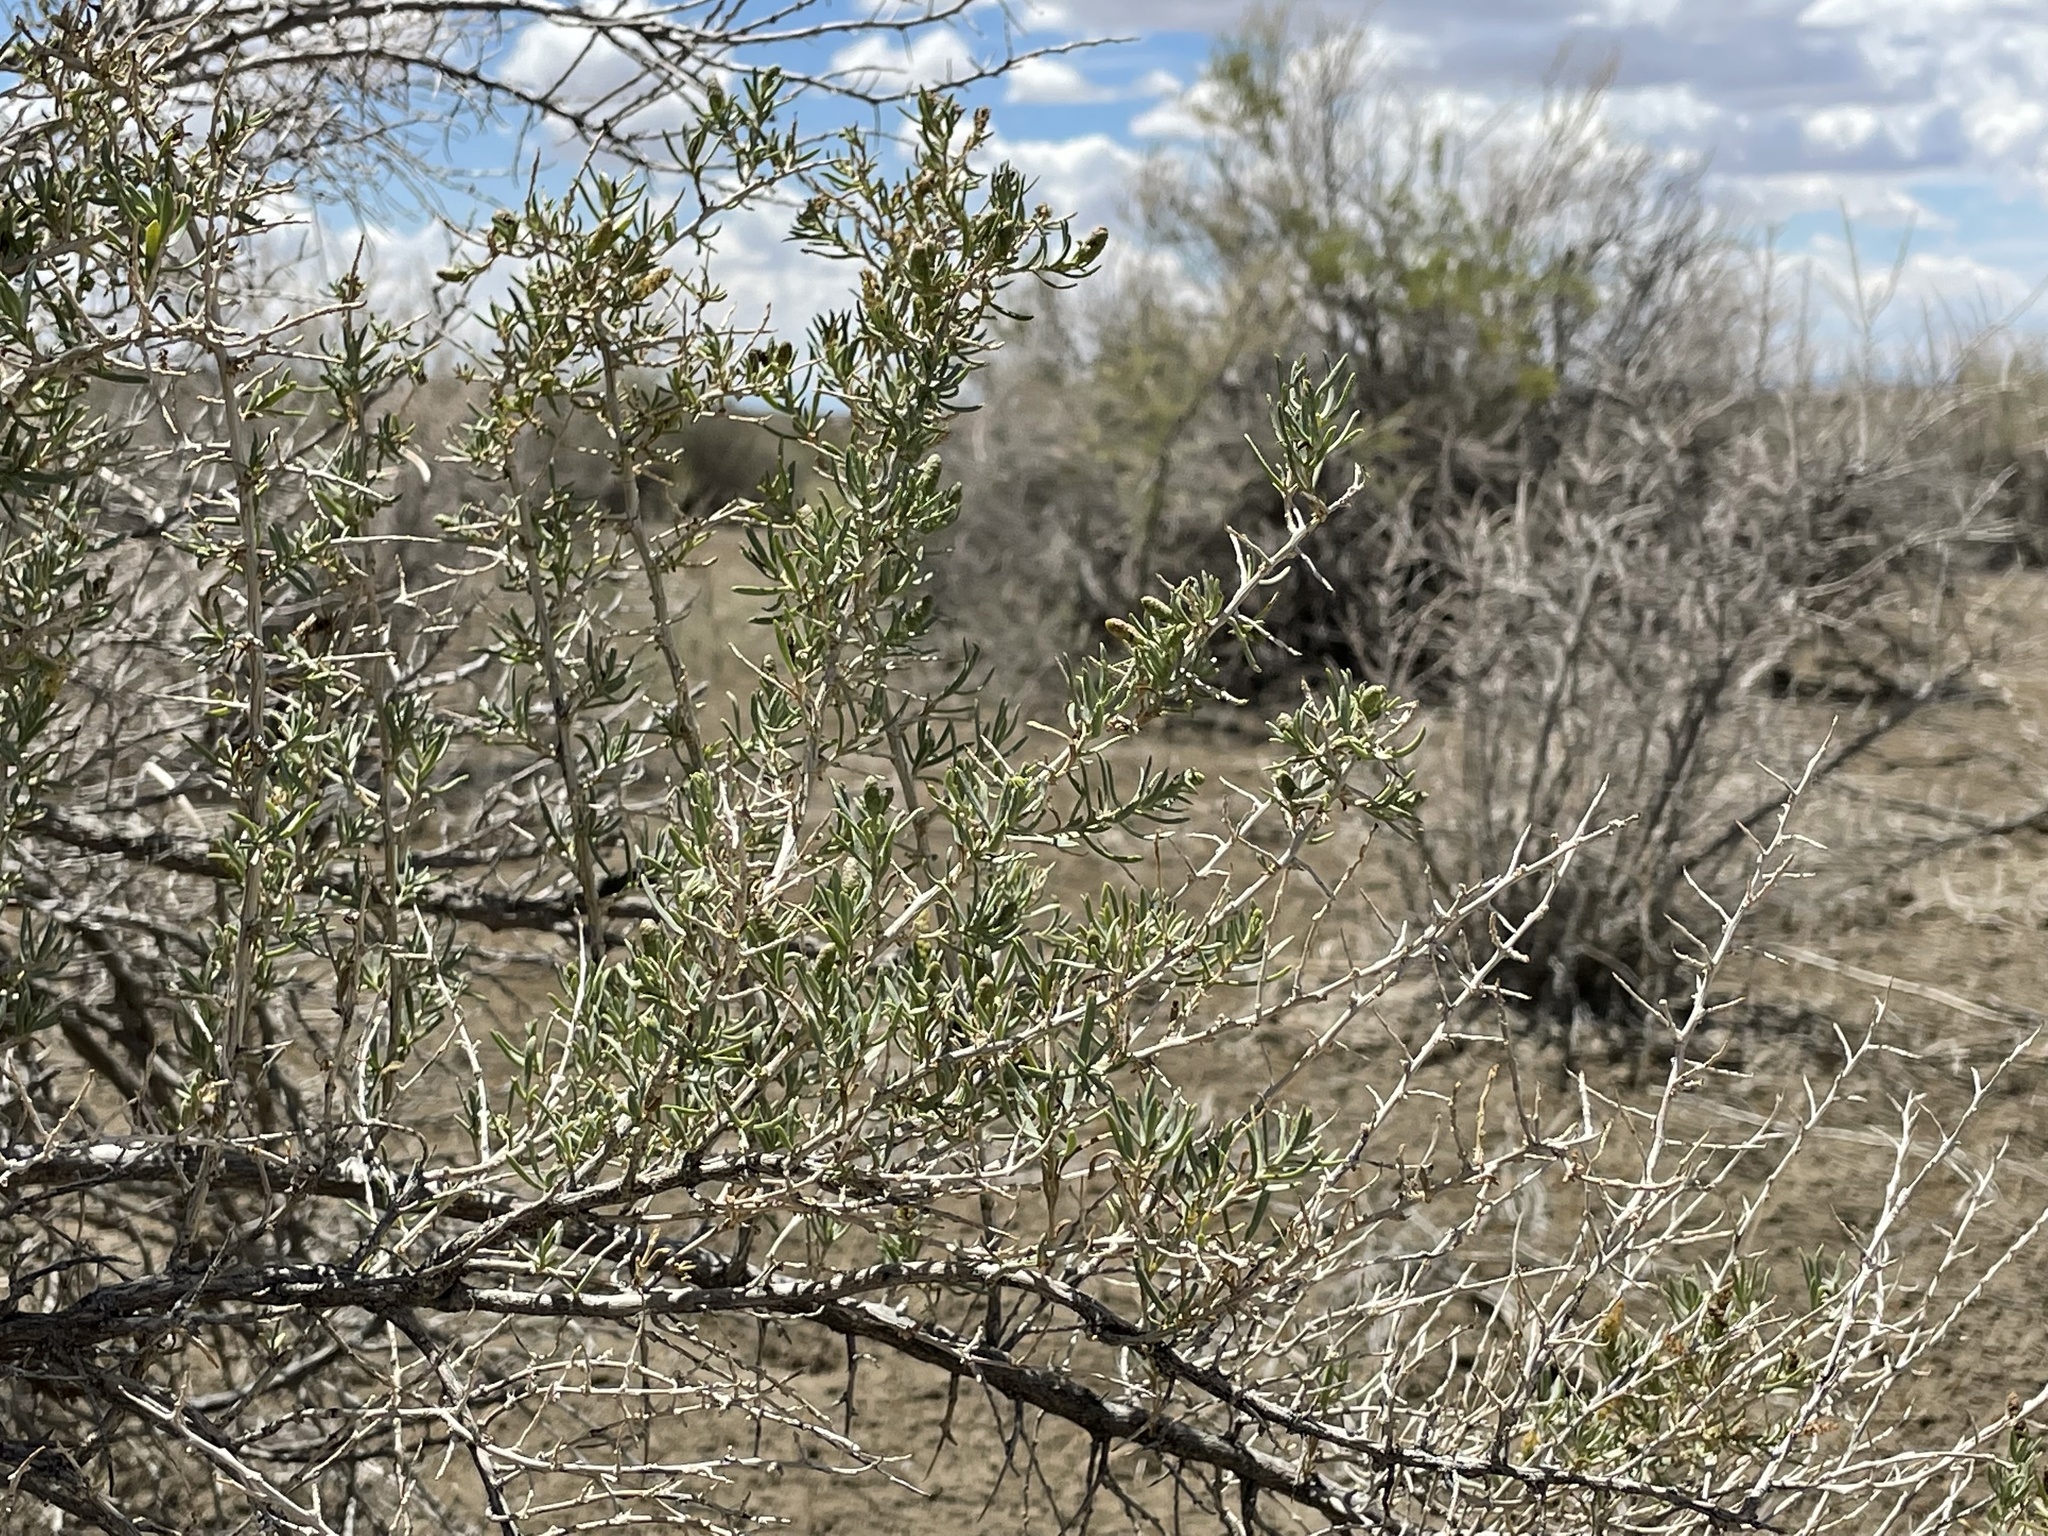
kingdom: Plantae
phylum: Tracheophyta
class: Magnoliopsida
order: Caryophyllales
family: Sarcobataceae
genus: Sarcobatus
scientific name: Sarcobatus vermiculatus
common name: Greasewood
